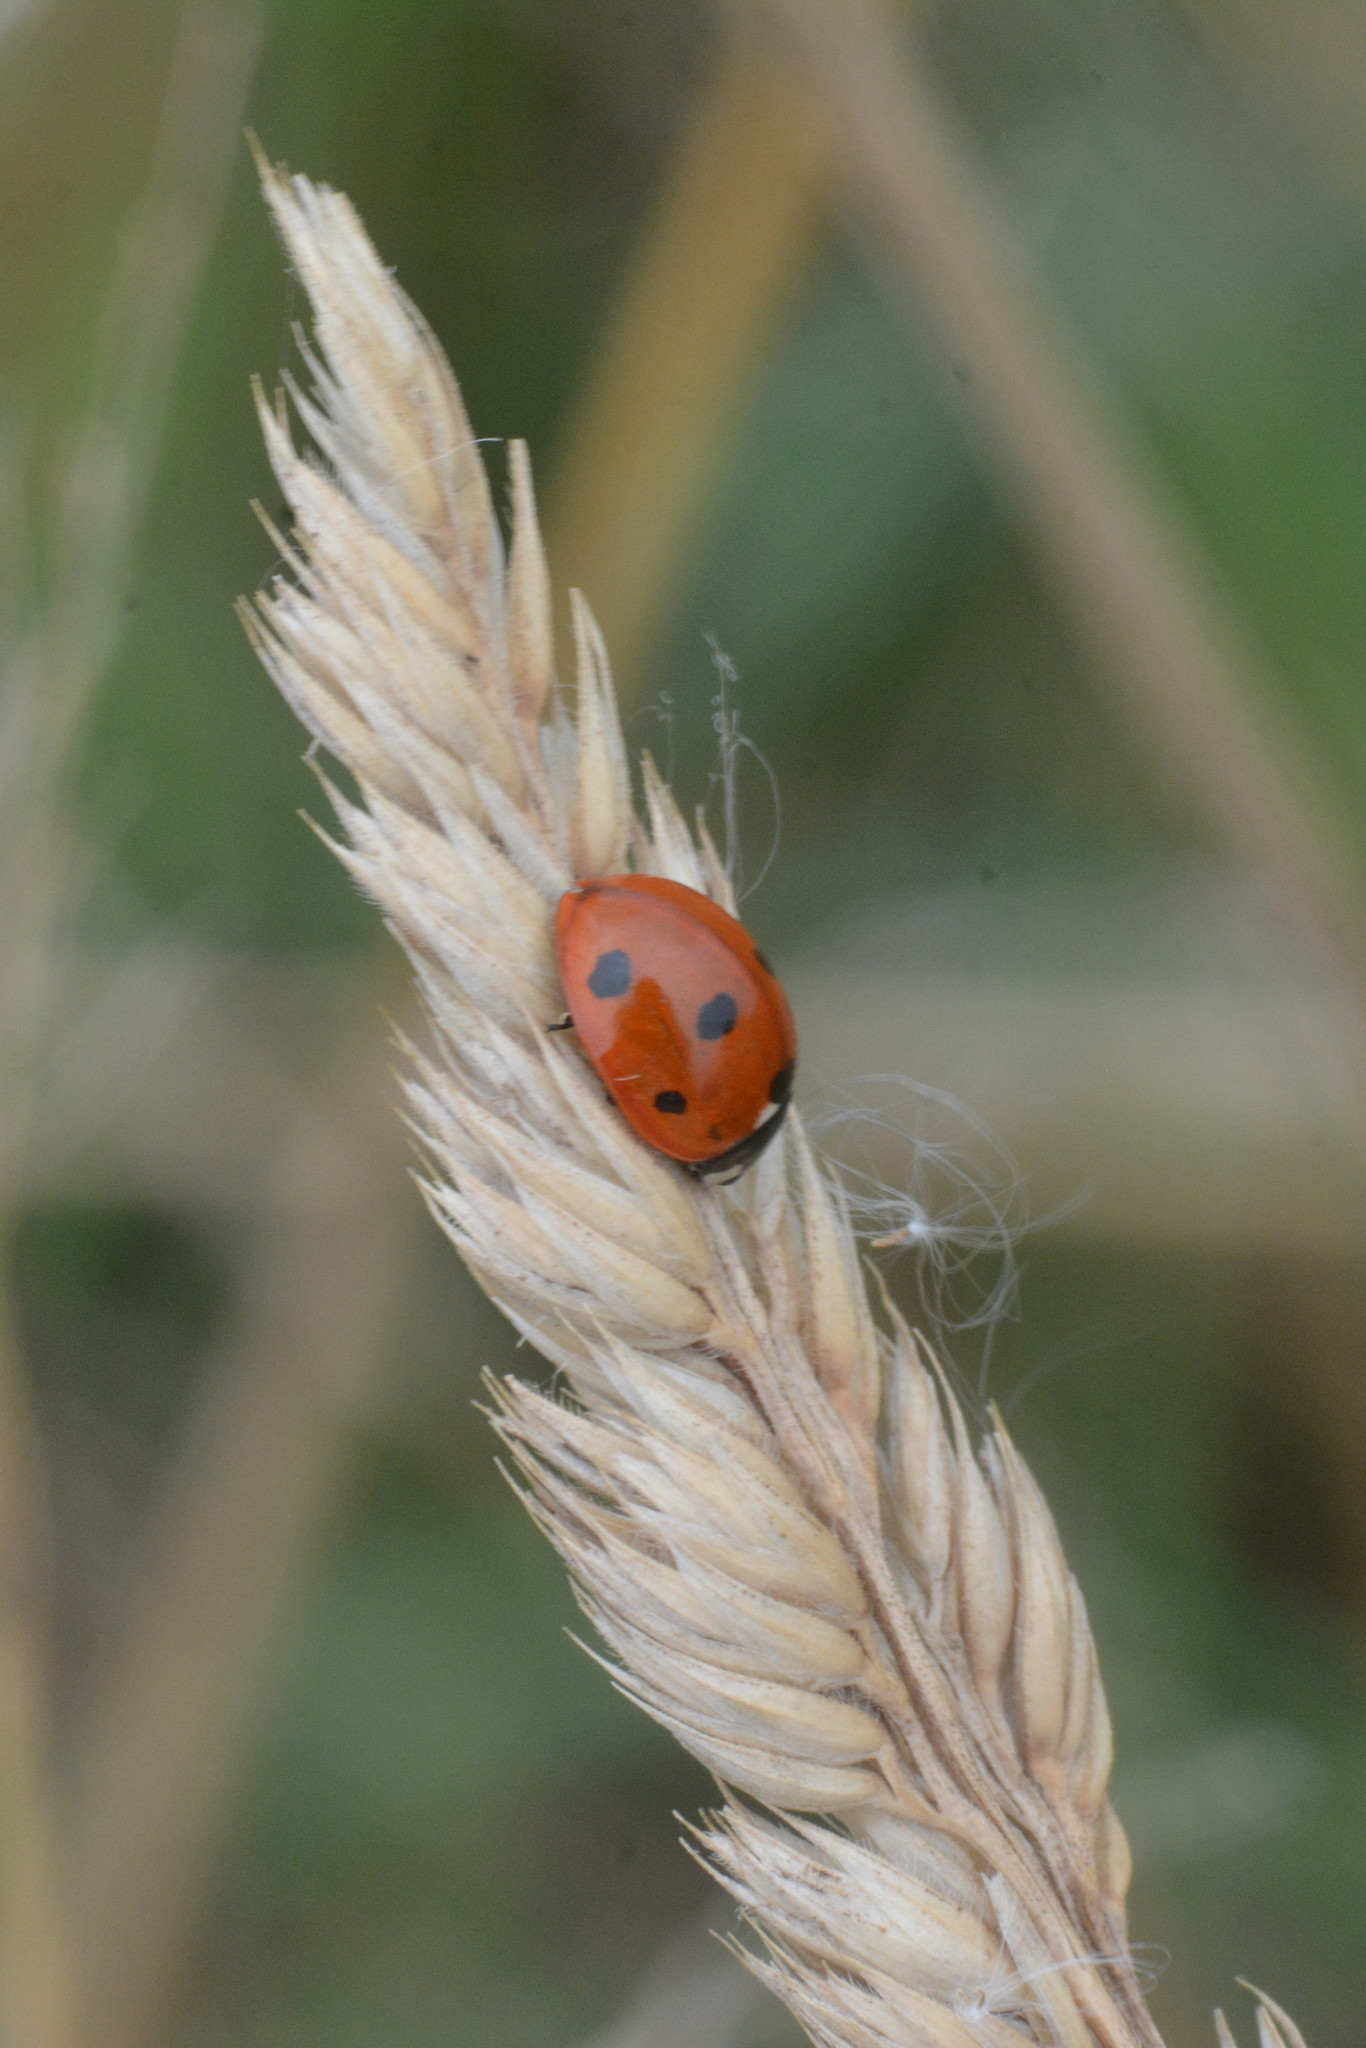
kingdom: Animalia
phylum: Arthropoda
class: Insecta
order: Coleoptera
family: Coccinellidae
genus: Coccinella
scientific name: Coccinella septempunctata
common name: Sevenspotted lady beetle
